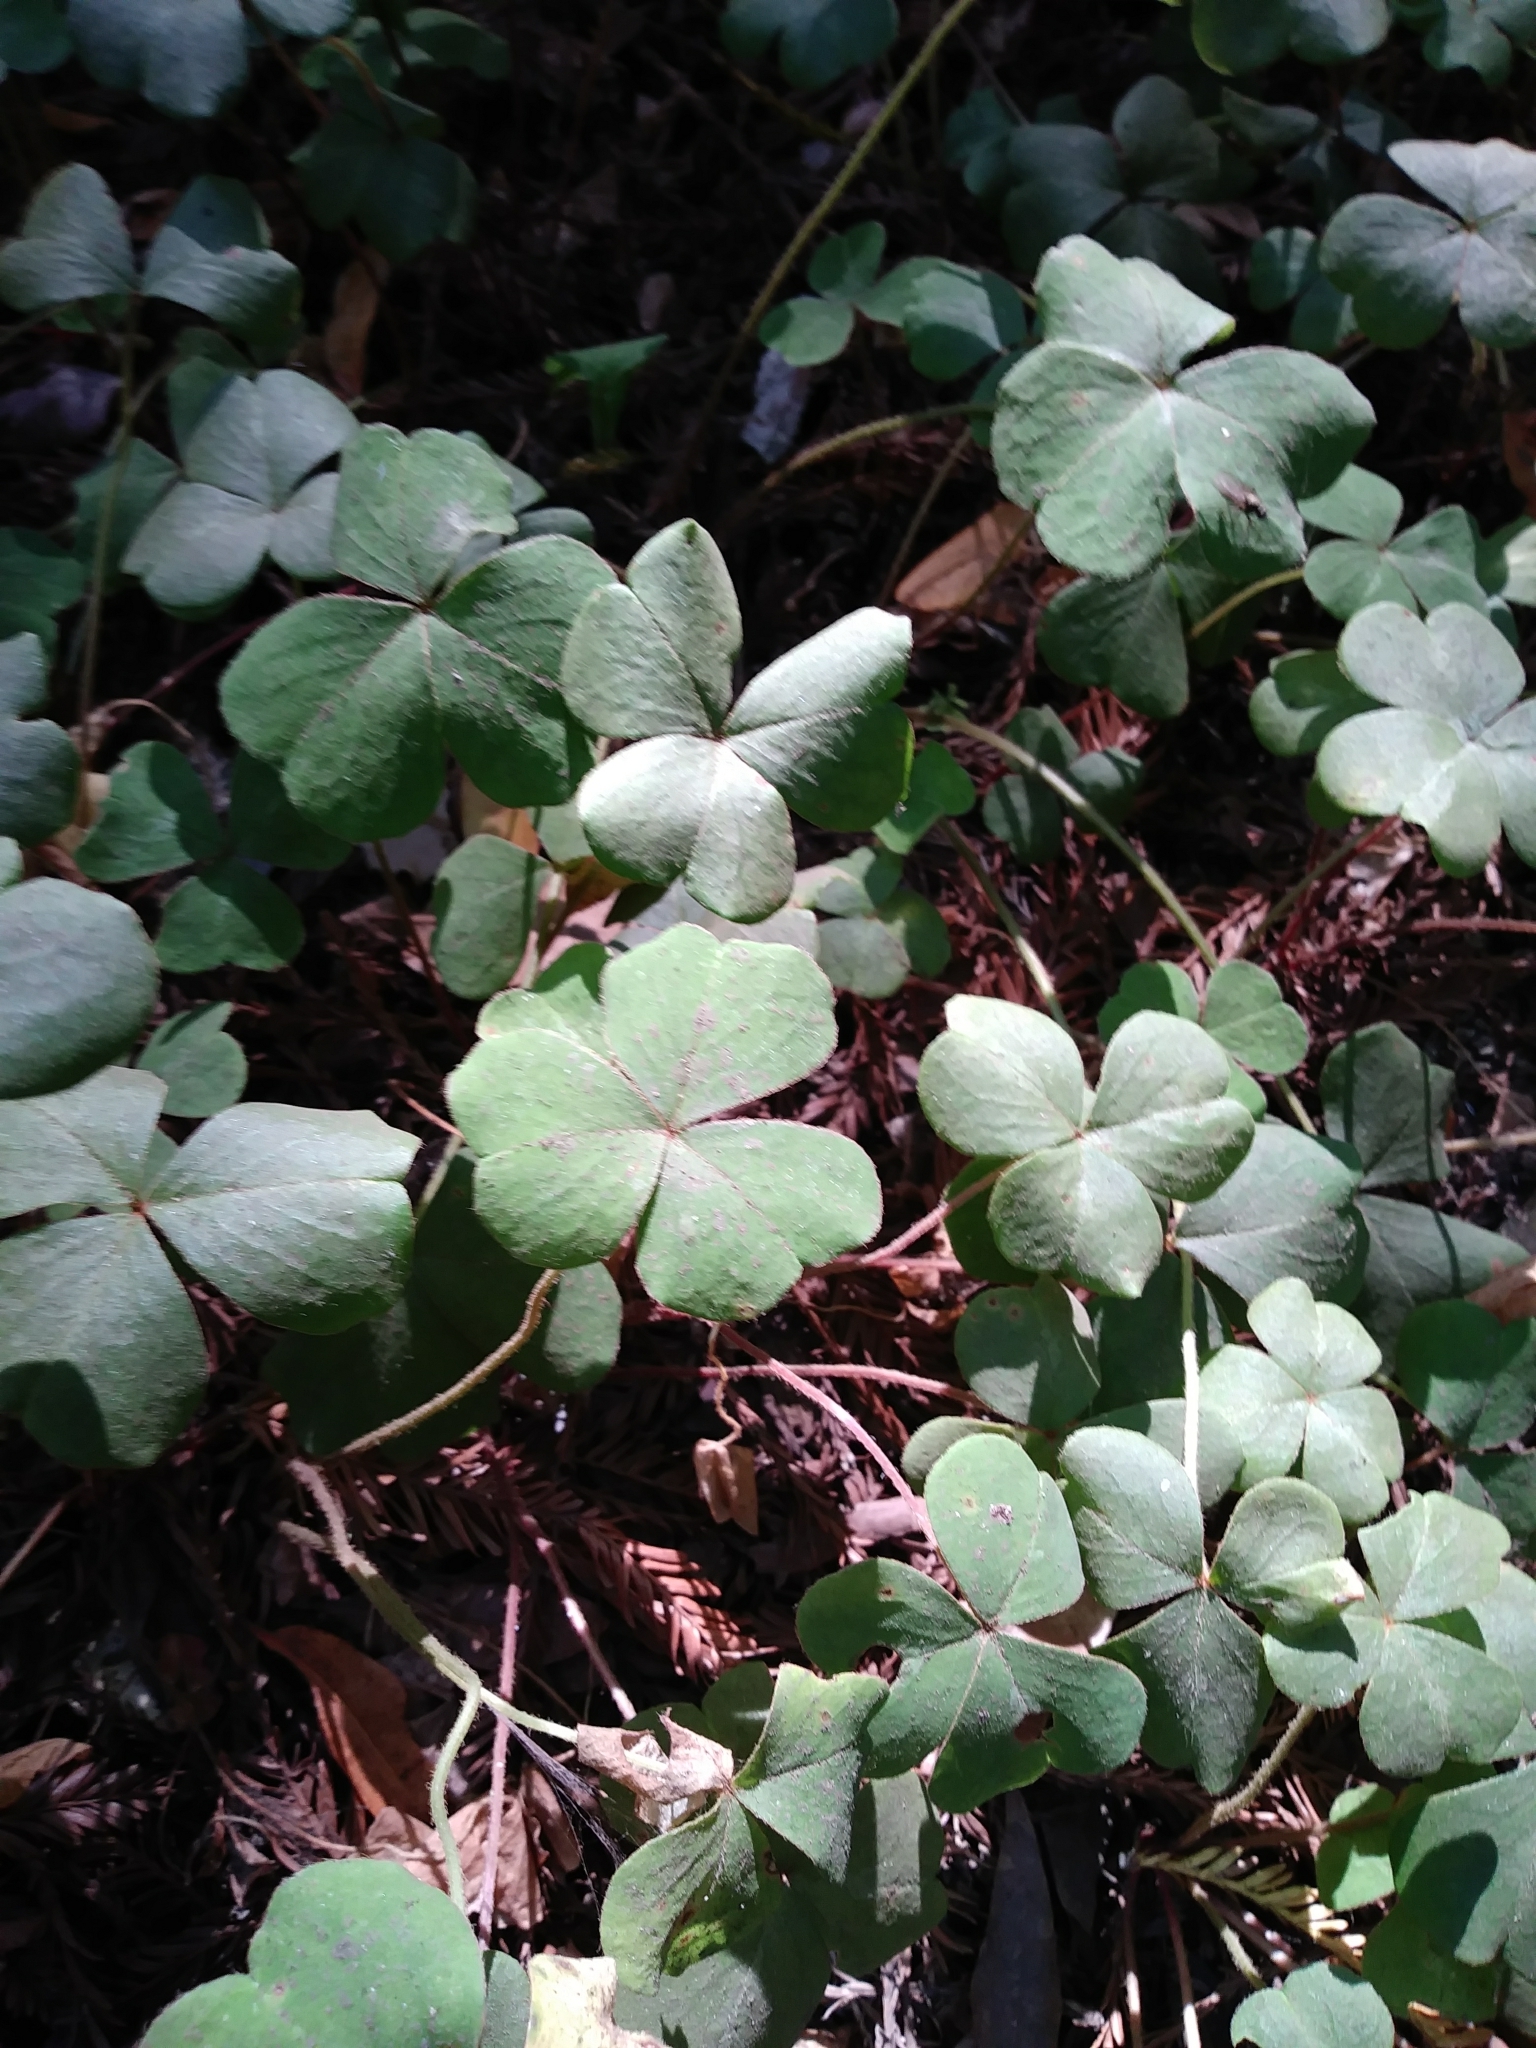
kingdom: Plantae
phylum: Tracheophyta
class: Magnoliopsida
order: Oxalidales
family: Oxalidaceae
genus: Oxalis
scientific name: Oxalis oregana
